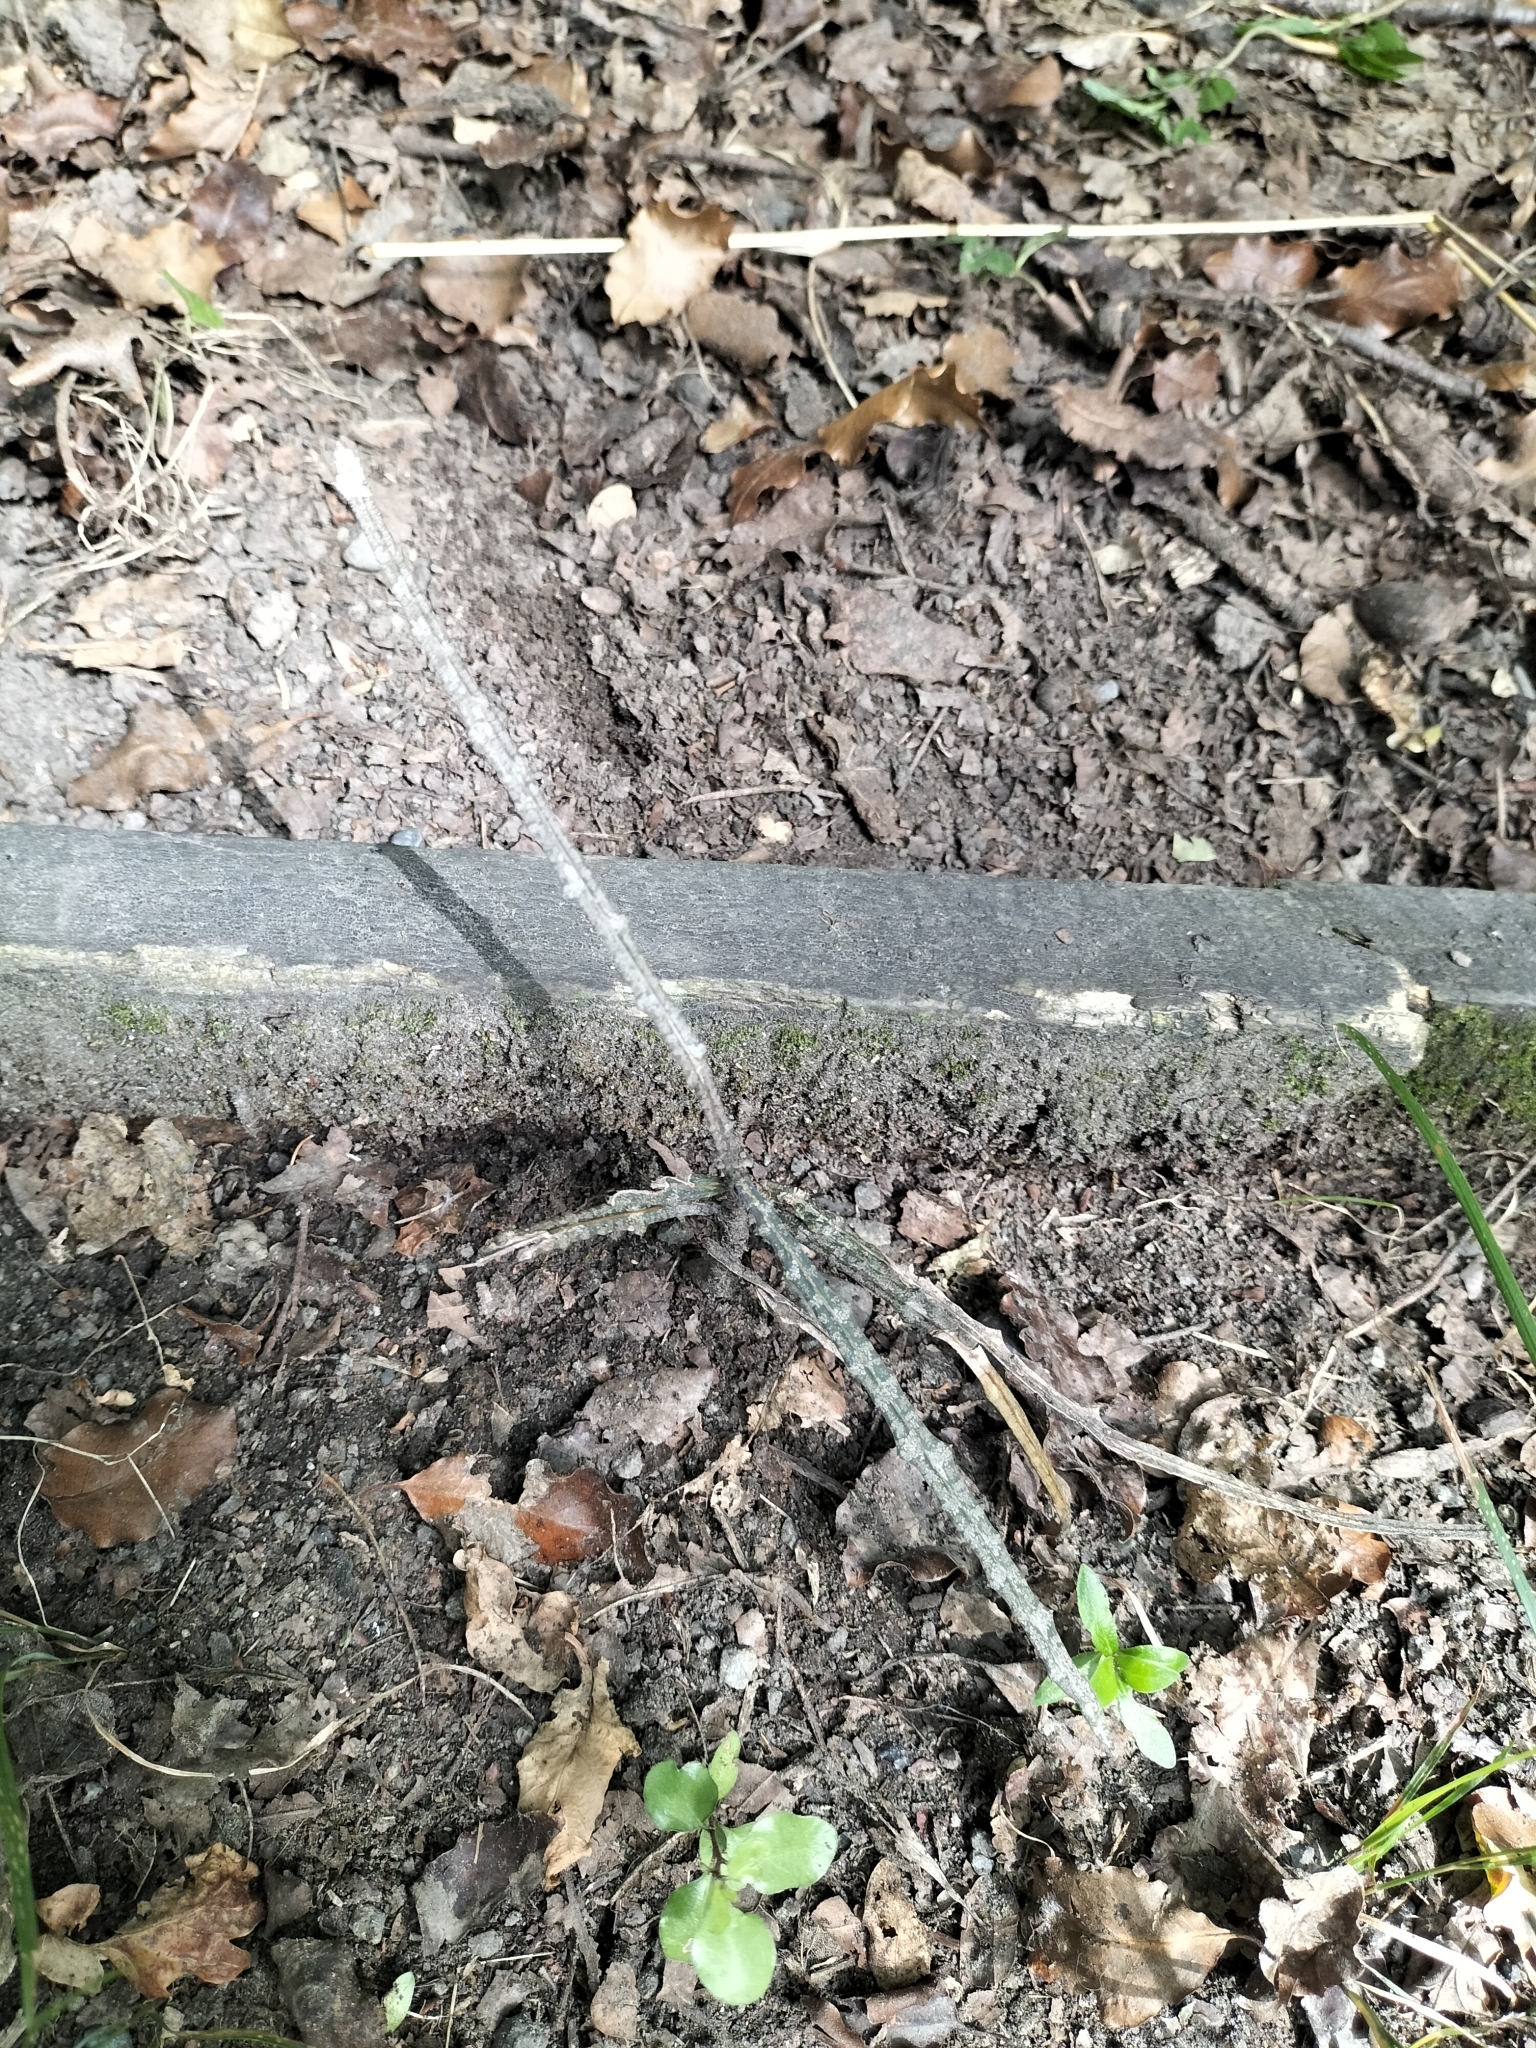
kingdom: Plantae
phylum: Tracheophyta
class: Magnoliopsida
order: Apiales
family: Araliaceae
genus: Pseudopanax
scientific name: Pseudopanax ferox
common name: Fierce lancewood
